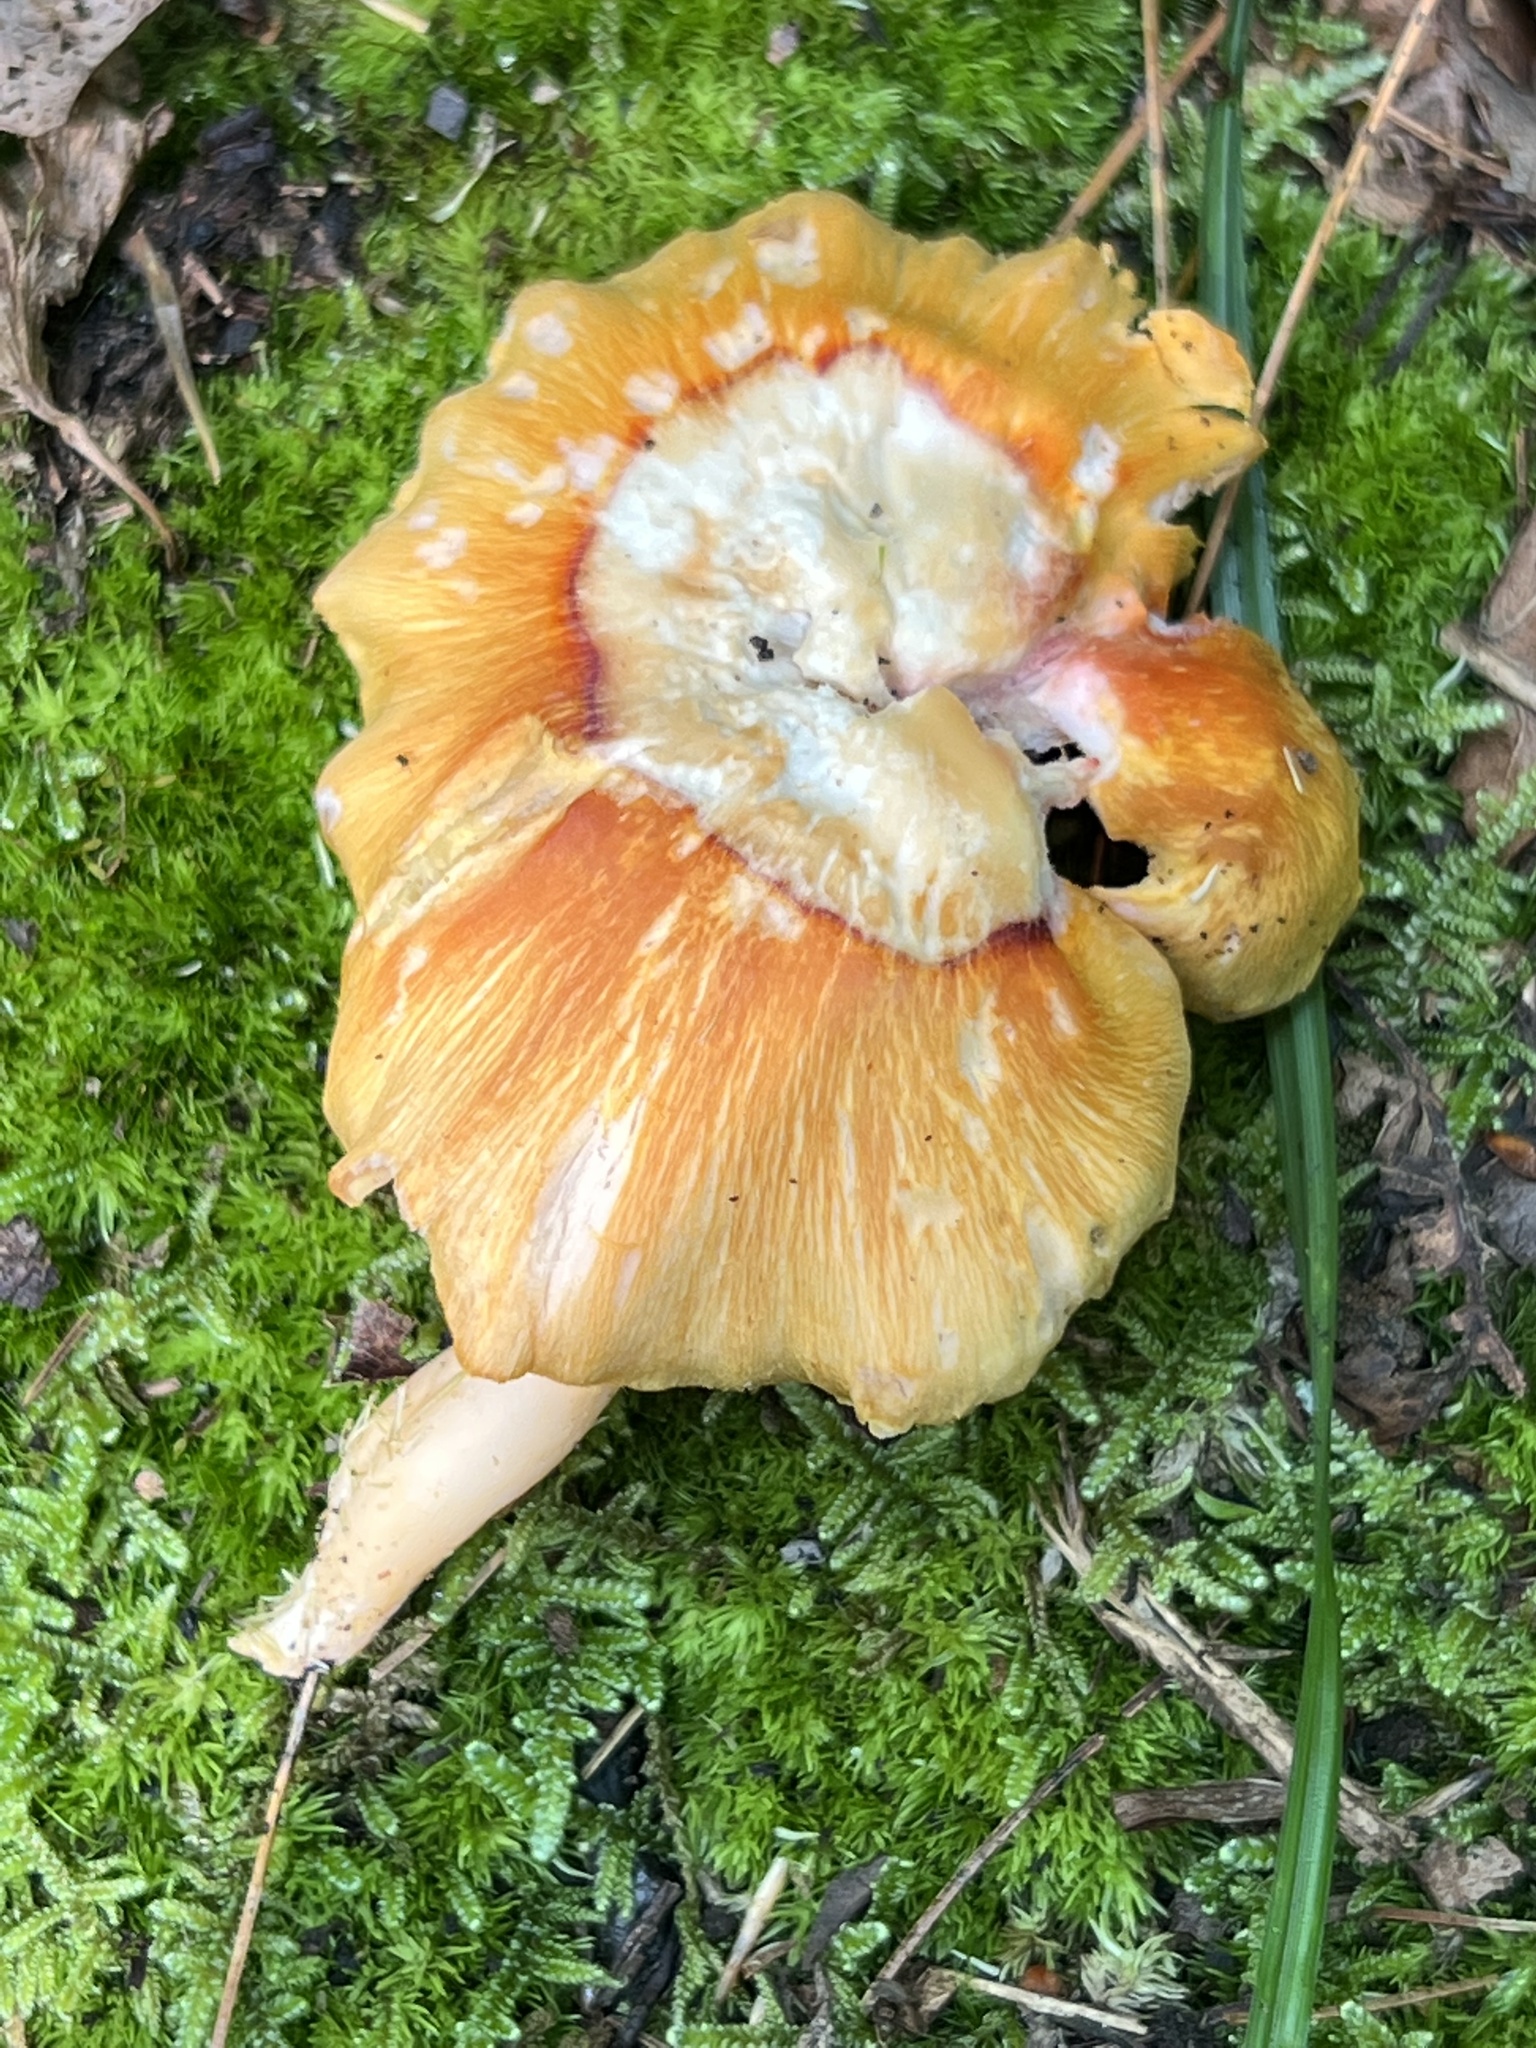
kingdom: Fungi
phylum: Basidiomycota
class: Agaricomycetes
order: Agaricales
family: Hygrophoraceae
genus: Humidicutis
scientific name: Humidicutis auratocephala
